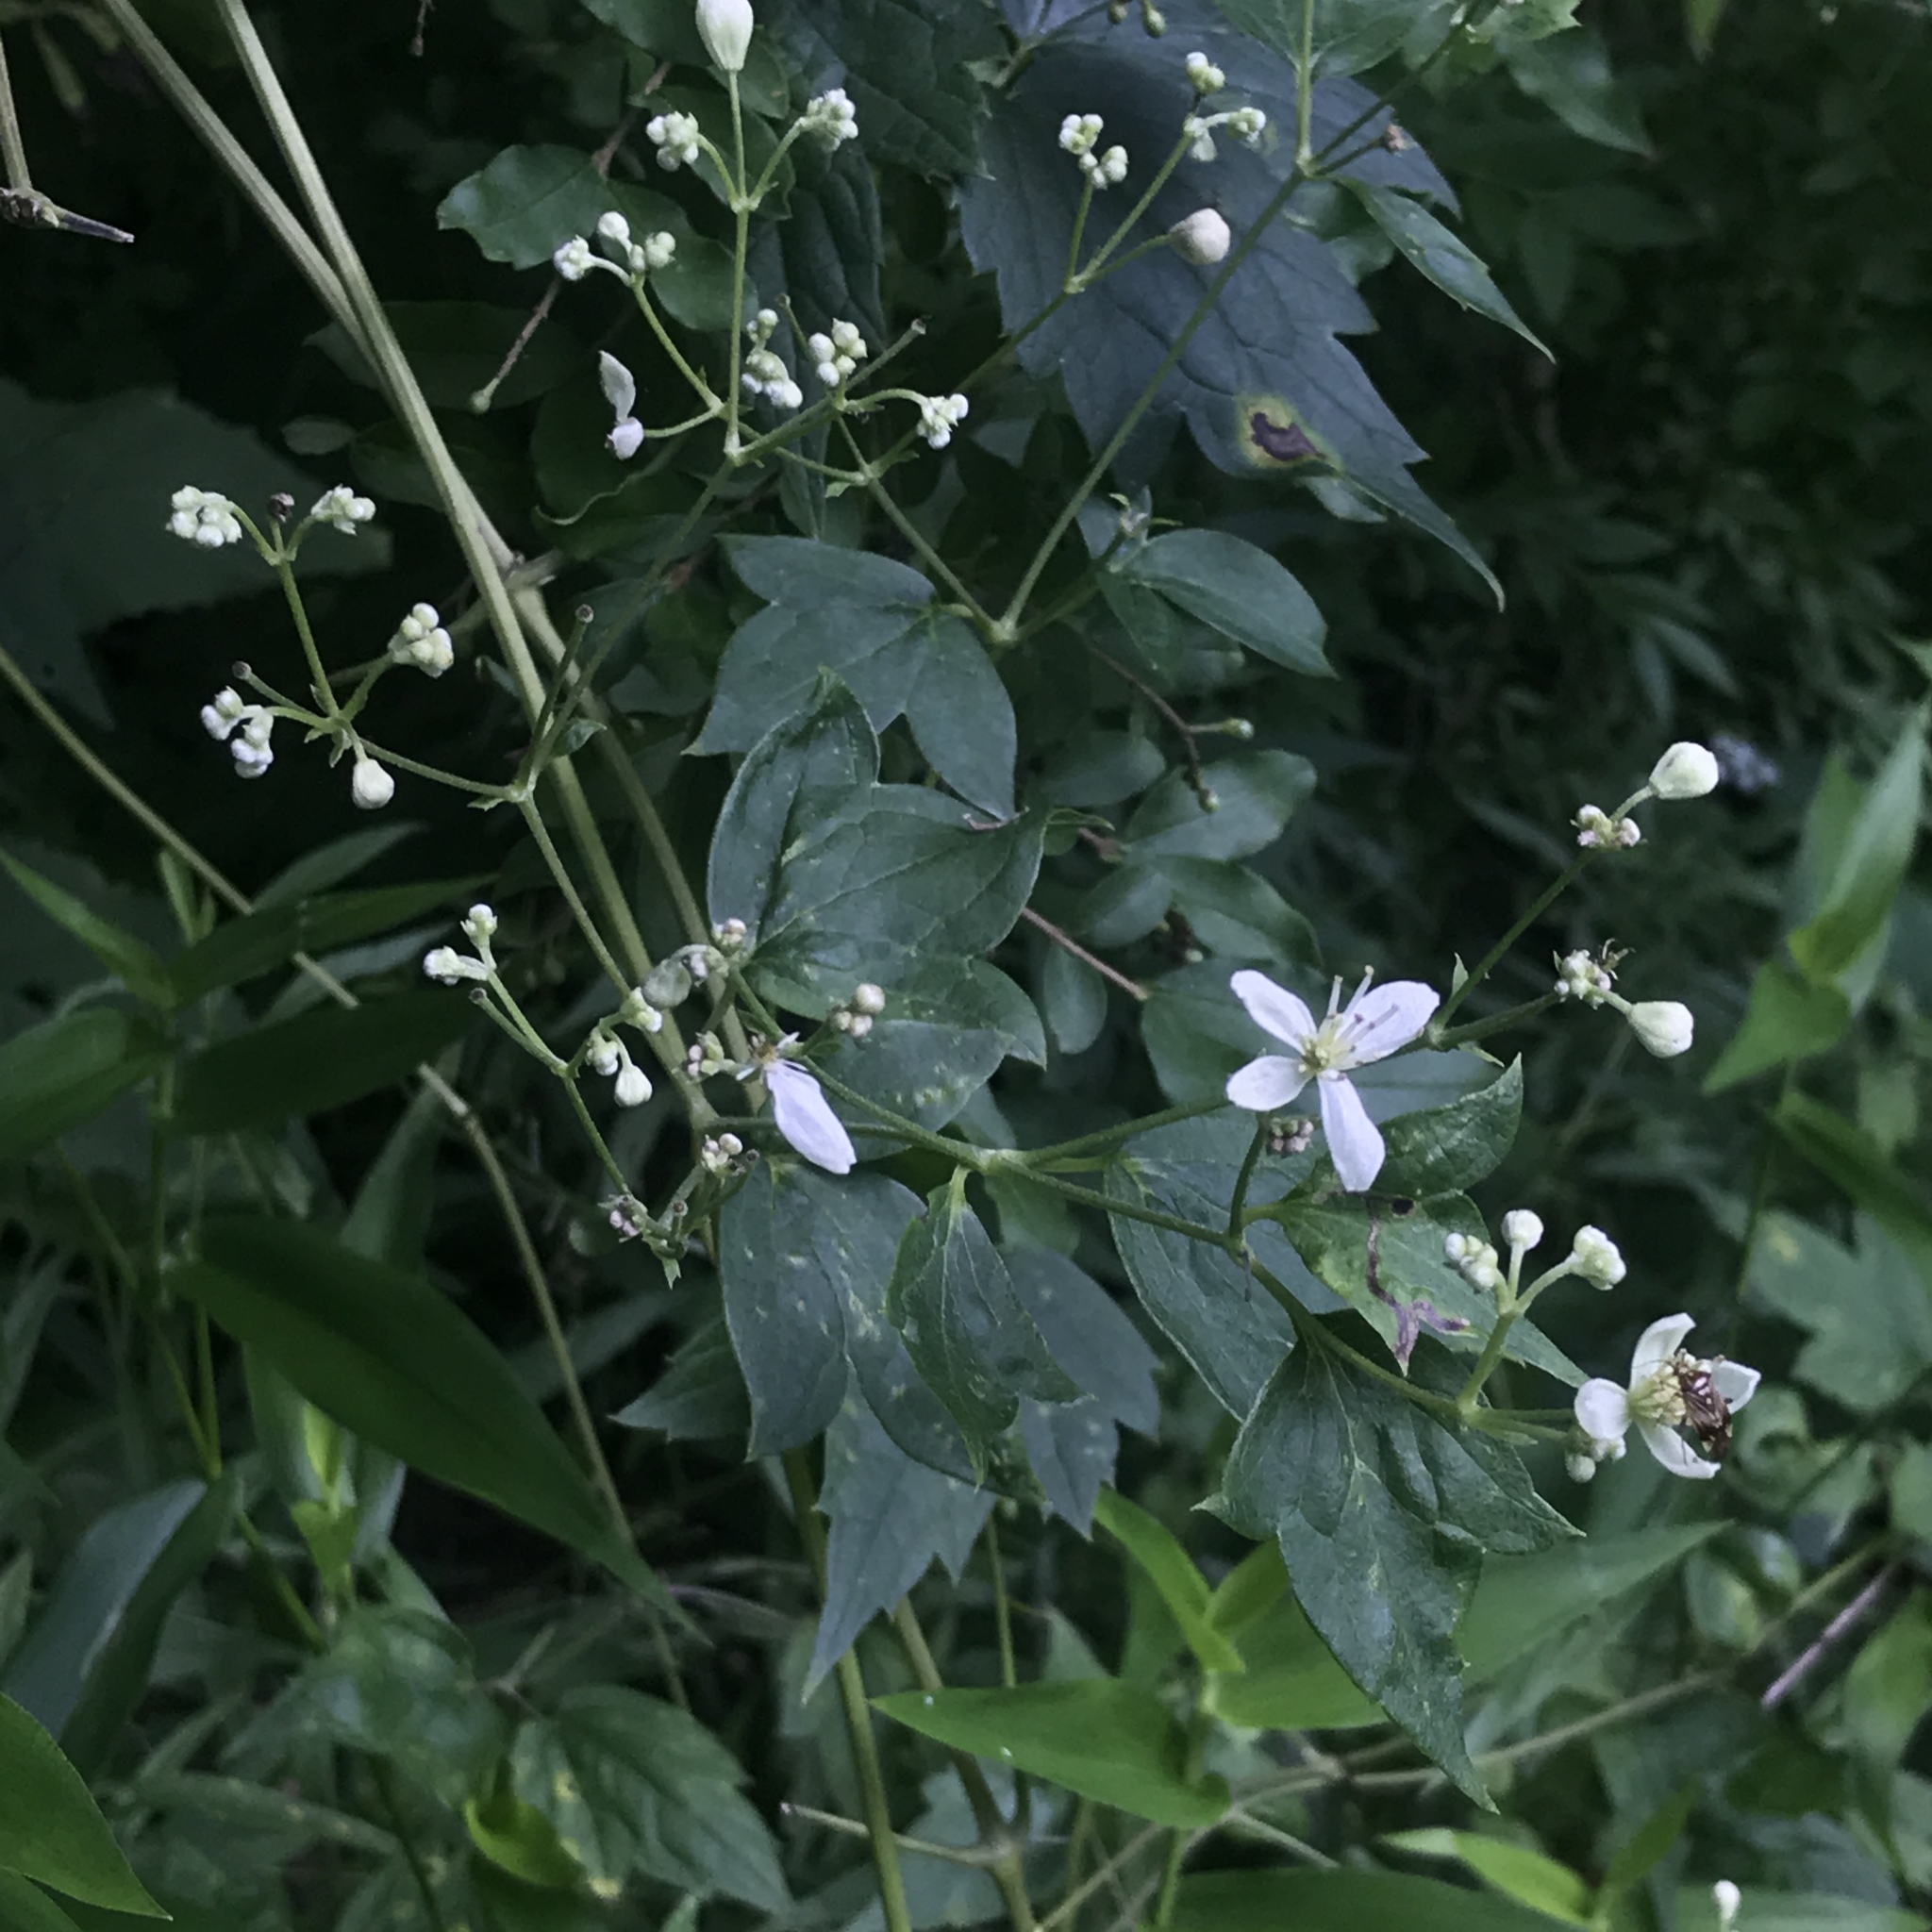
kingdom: Plantae
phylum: Tracheophyta
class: Magnoliopsida
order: Ranunculales
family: Ranunculaceae
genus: Clematis
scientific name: Clematis virginiana
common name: Virgin's-bower
